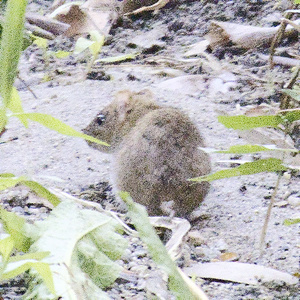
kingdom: Animalia
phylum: Chordata
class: Mammalia
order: Rodentia
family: Muridae
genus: Rattus
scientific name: Rattus norvegicus
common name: Brown rat
